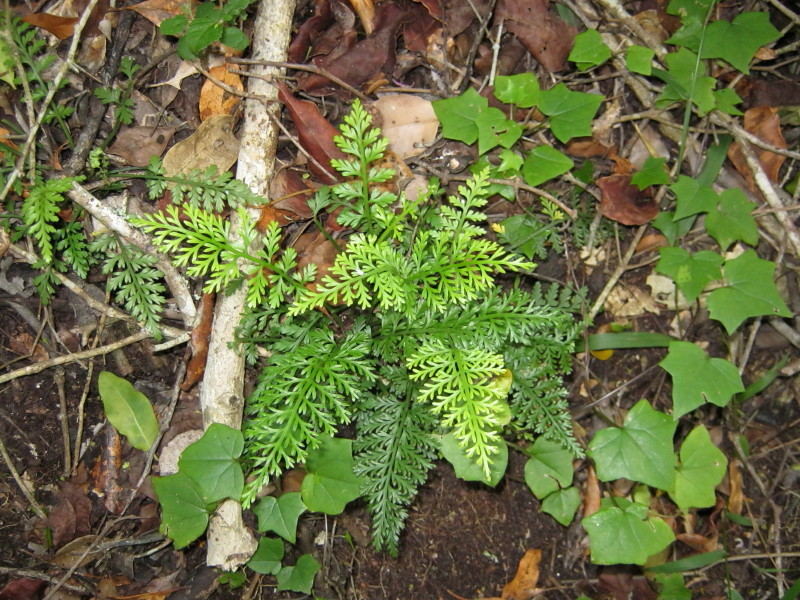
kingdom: Plantae
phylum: Tracheophyta
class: Polypodiopsida
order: Polypodiales
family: Aspleniaceae
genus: Asplenium
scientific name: Asplenium rutifolium
